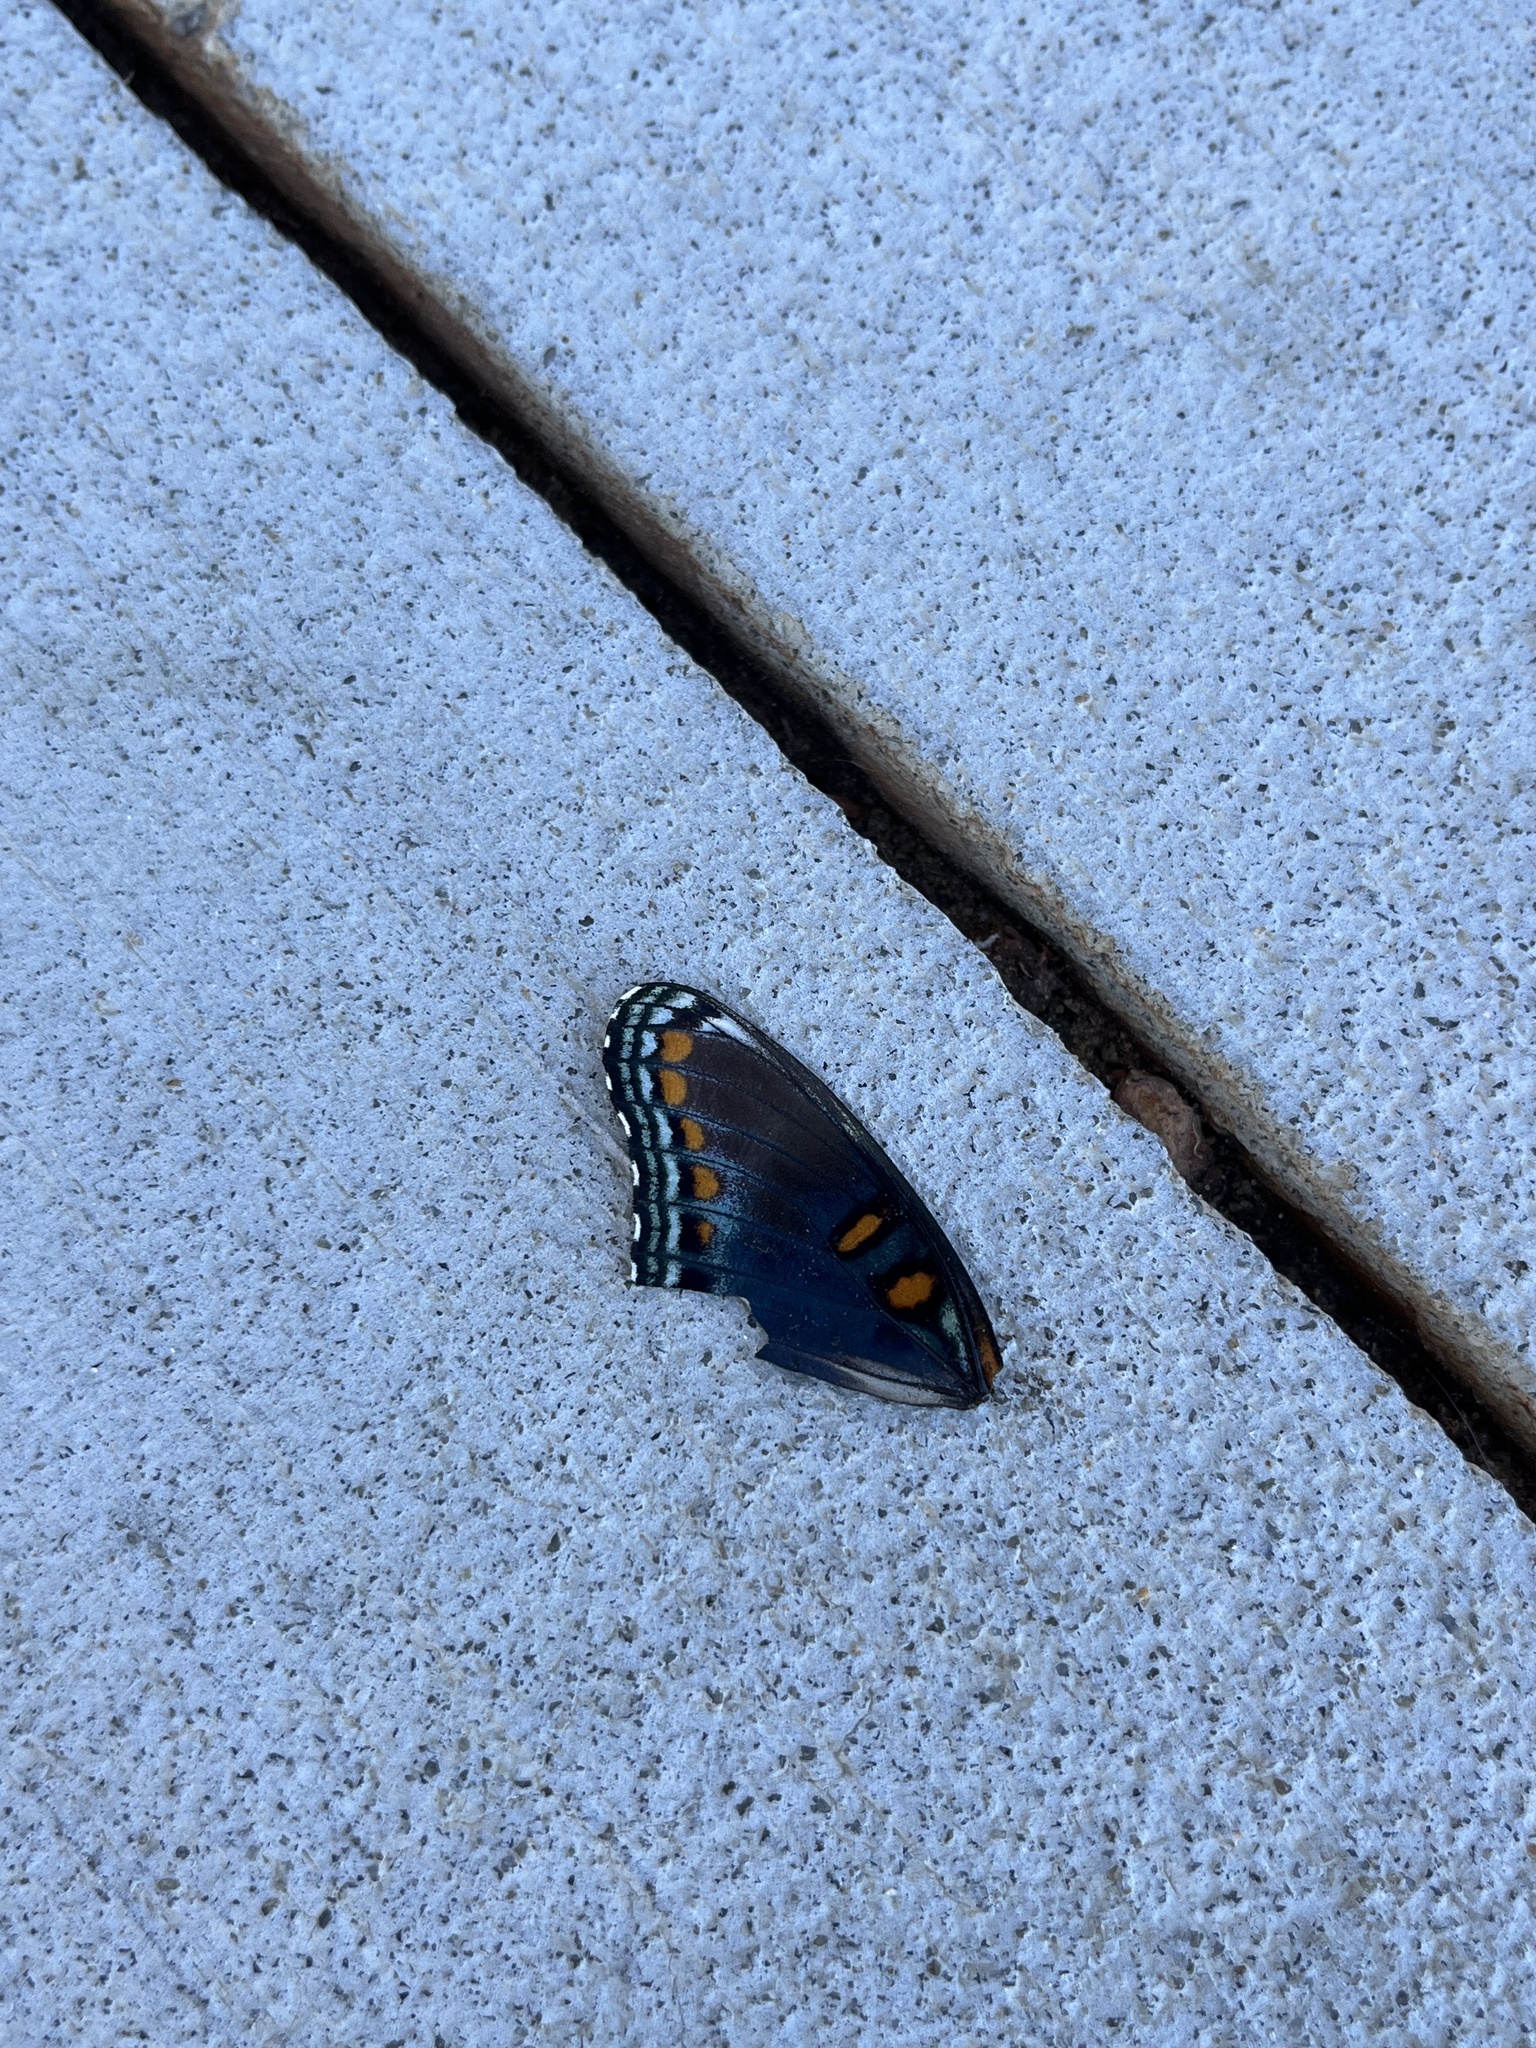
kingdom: Animalia
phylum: Arthropoda
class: Insecta
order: Lepidoptera
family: Nymphalidae
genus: Limenitis
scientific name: Limenitis astyanax
